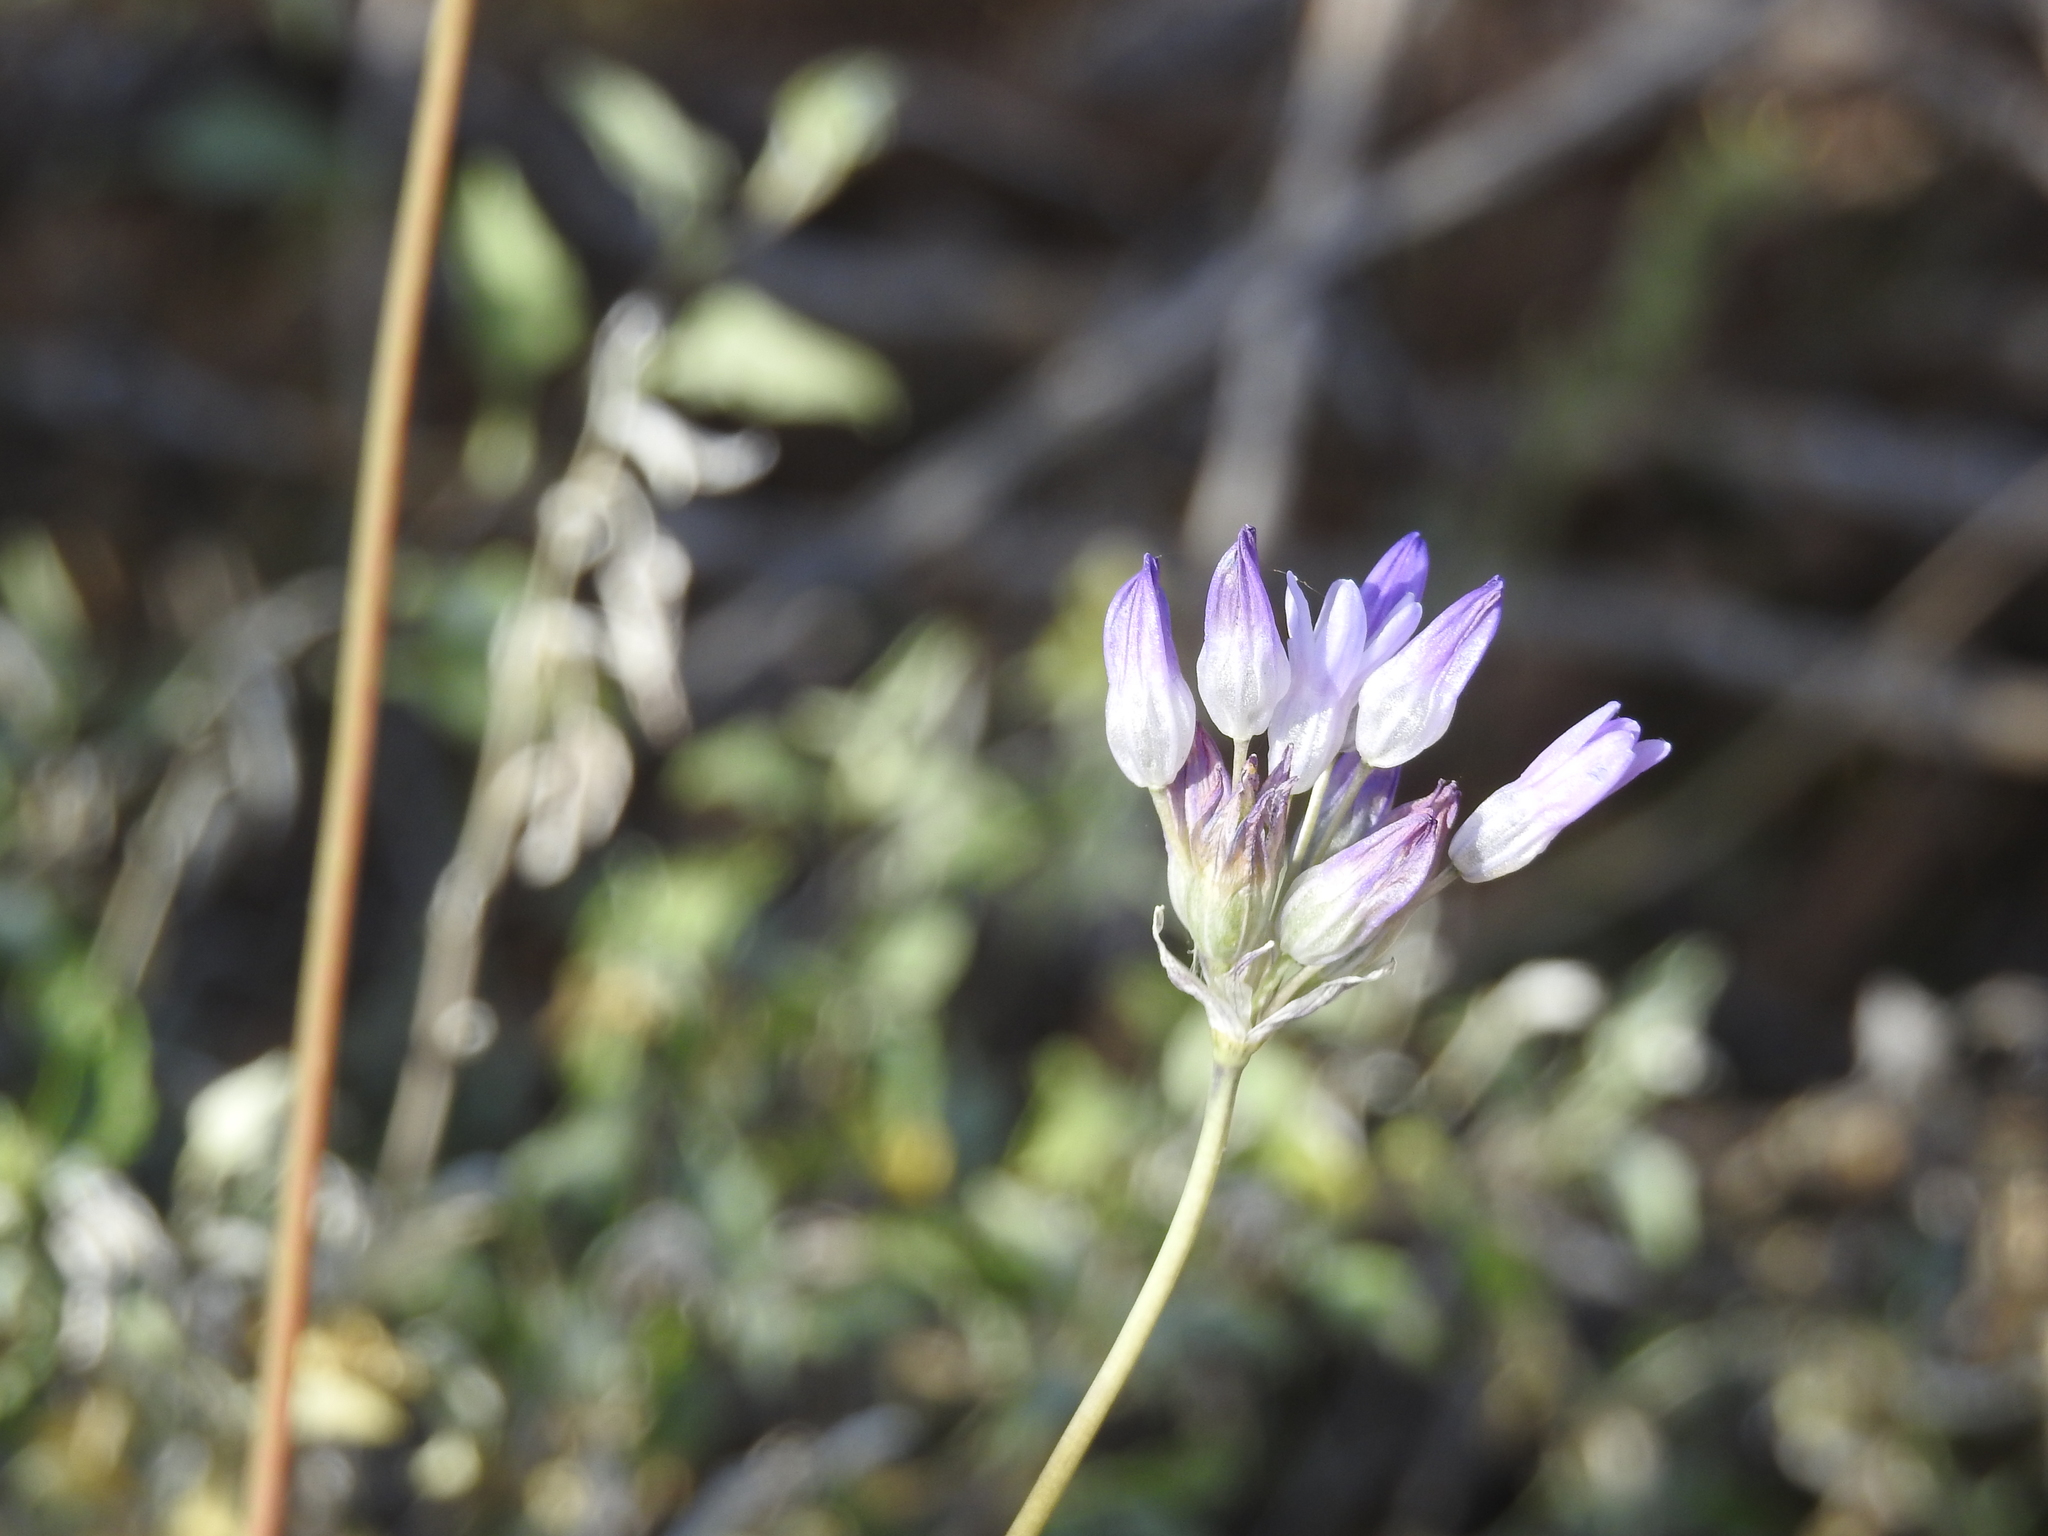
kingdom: Plantae
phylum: Tracheophyta
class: Liliopsida
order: Asparagales
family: Asparagaceae
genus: Dipterostemon
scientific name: Dipterostemon capitatus
